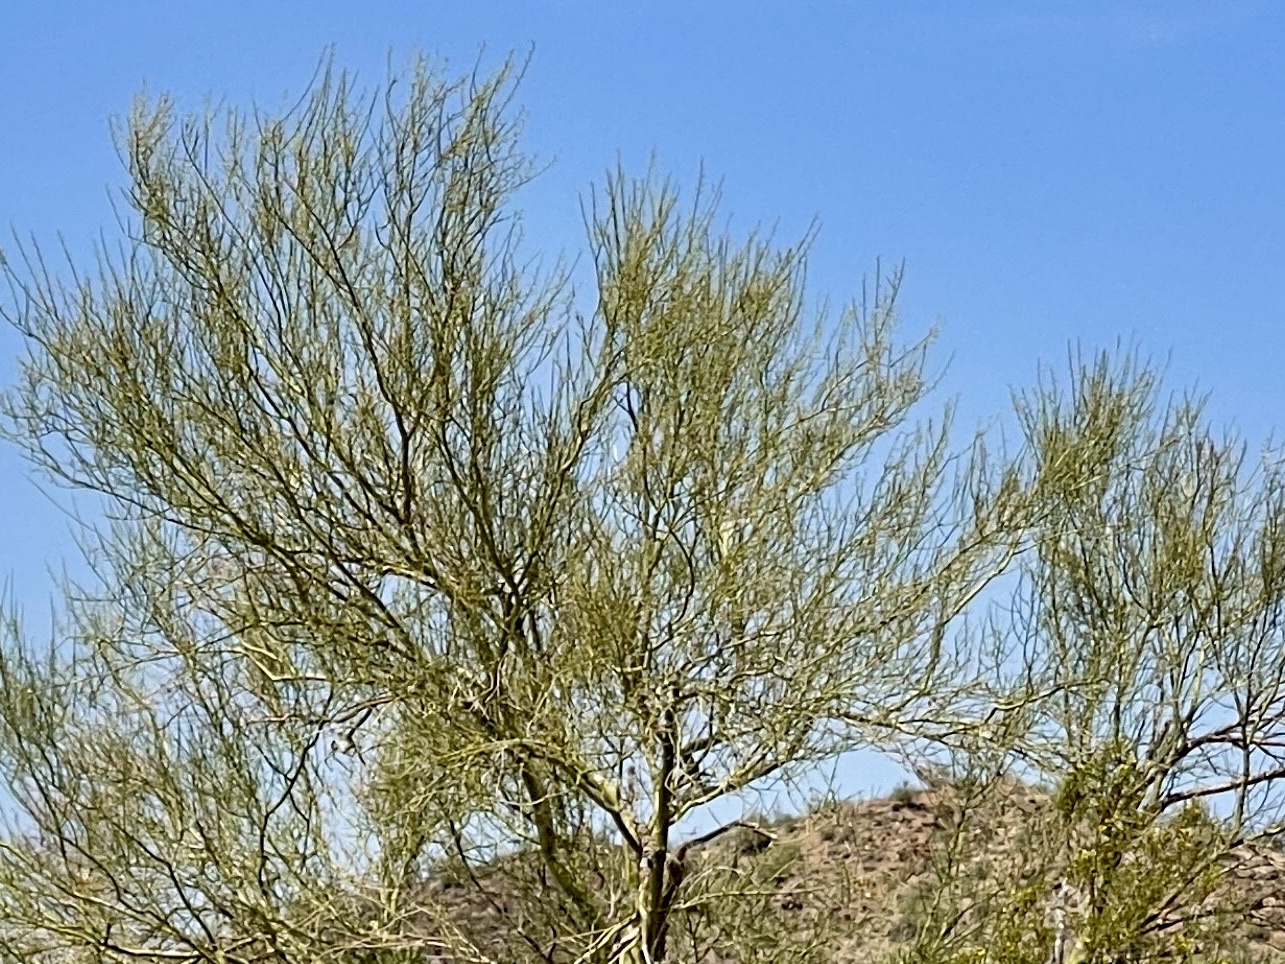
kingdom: Plantae
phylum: Tracheophyta
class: Magnoliopsida
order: Fabales
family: Fabaceae
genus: Parkinsonia
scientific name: Parkinsonia microphylla
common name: Yellow paloverde
